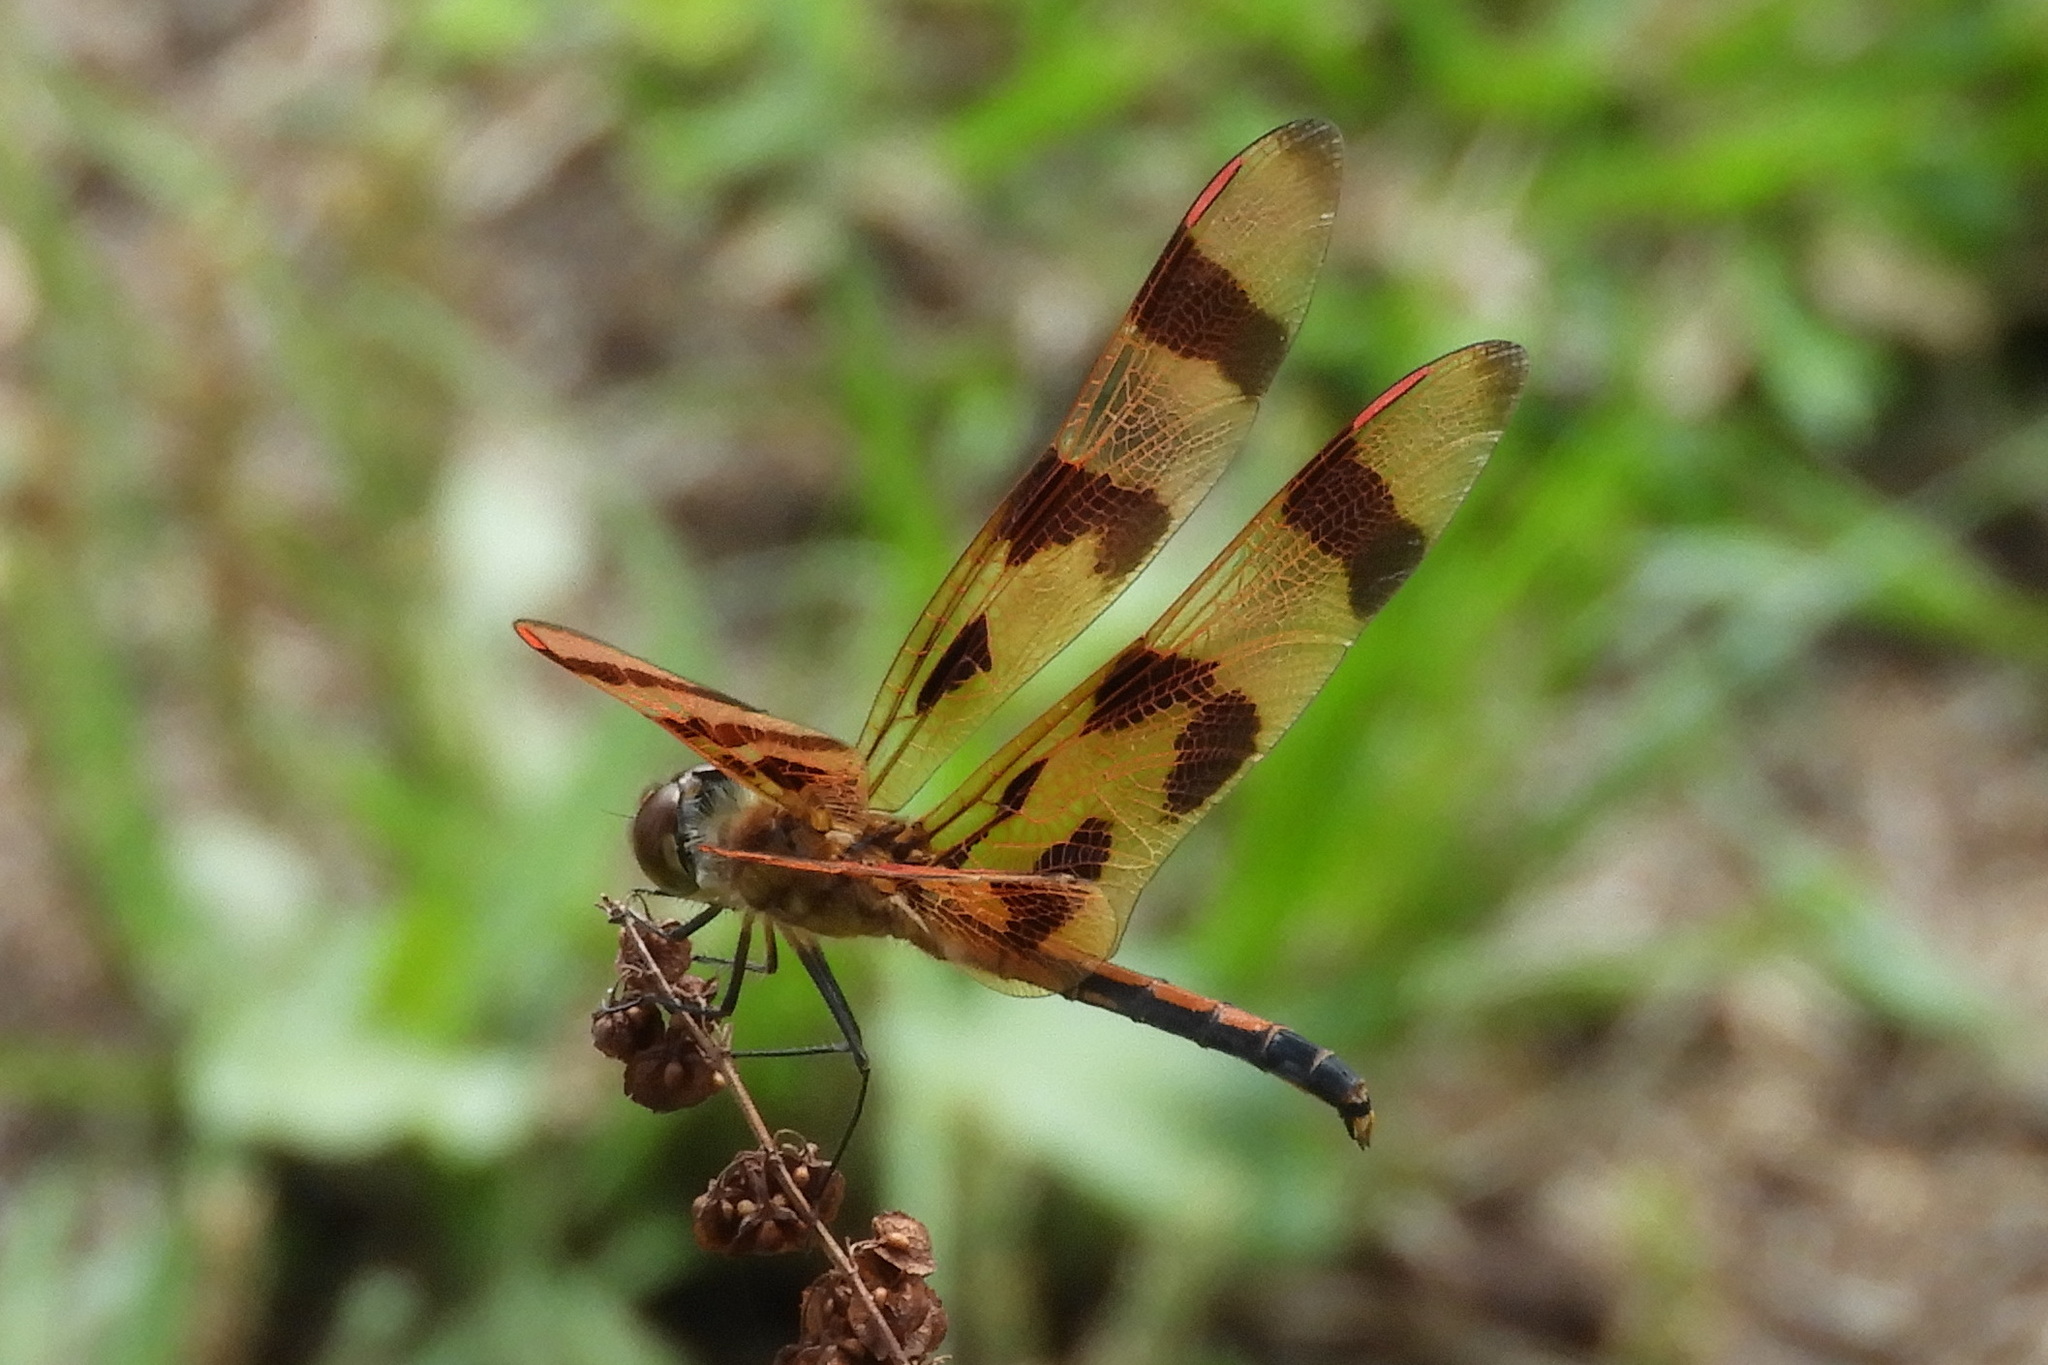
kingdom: Animalia
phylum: Arthropoda
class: Insecta
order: Odonata
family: Libellulidae
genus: Celithemis
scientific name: Celithemis eponina
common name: Halloween pennant
